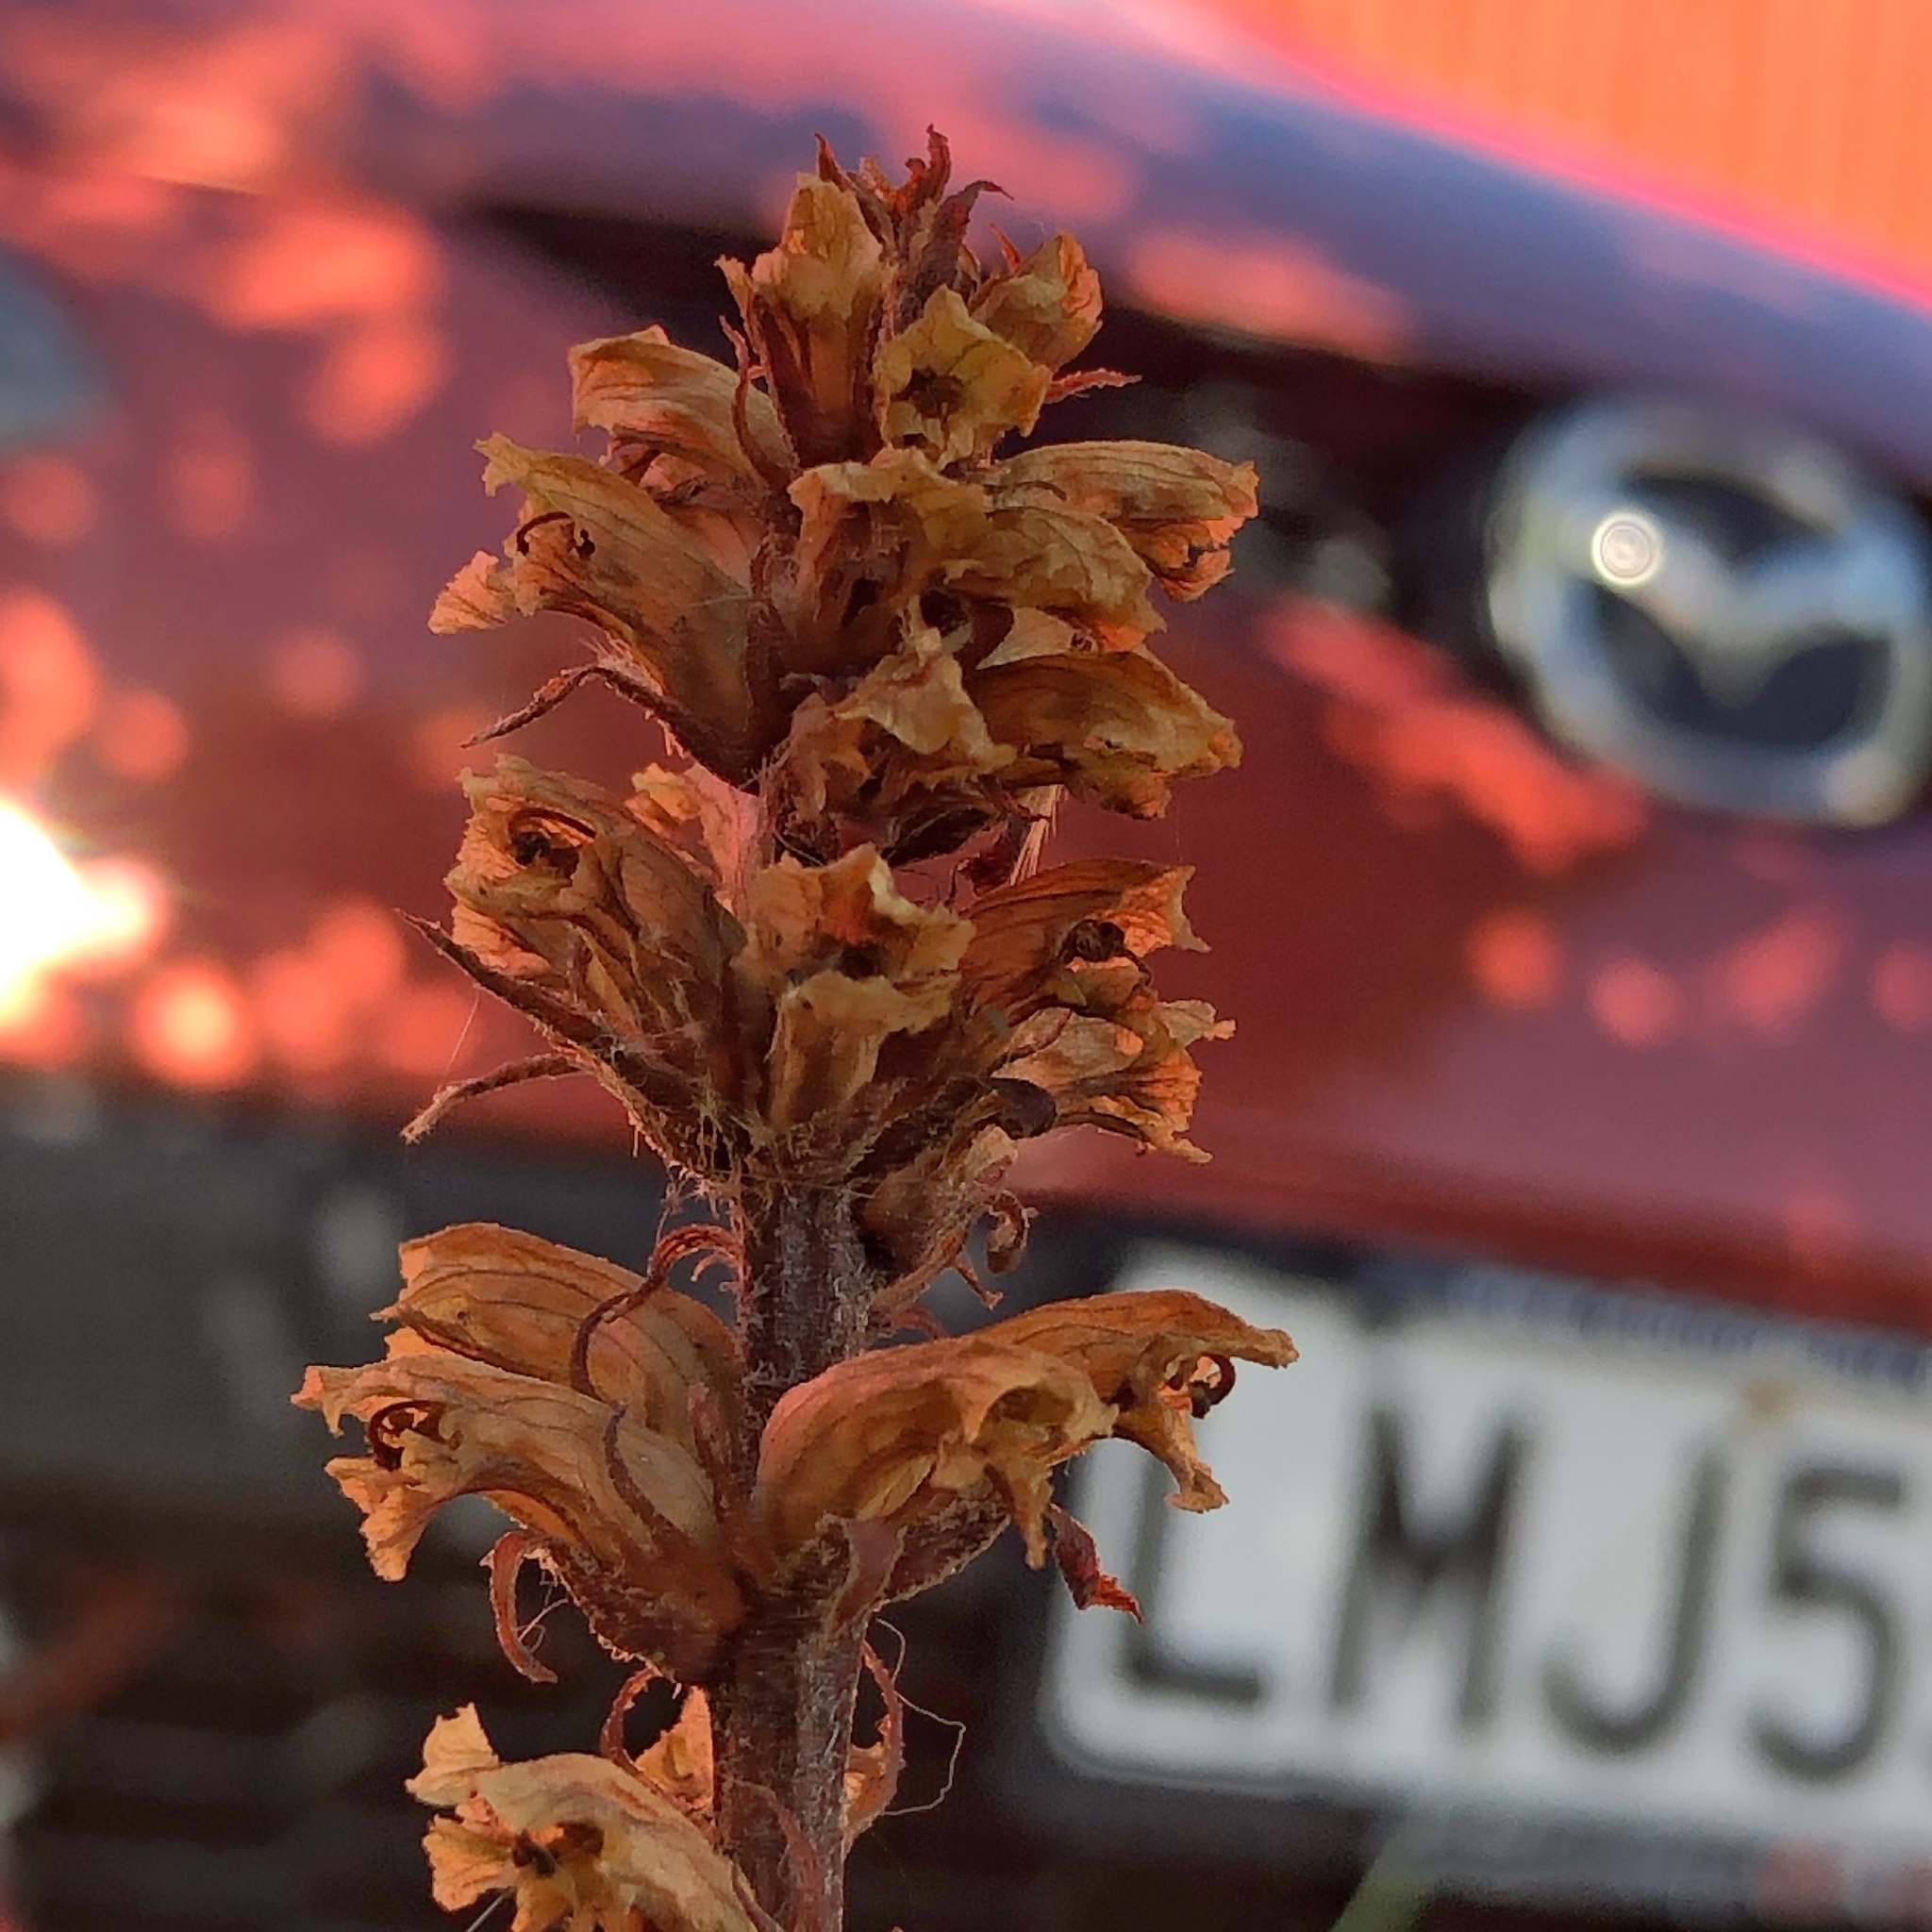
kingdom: Plantae
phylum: Tracheophyta
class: Magnoliopsida
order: Lamiales
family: Orobanchaceae
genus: Orobanche
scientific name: Orobanche minor
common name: Common broomrape
